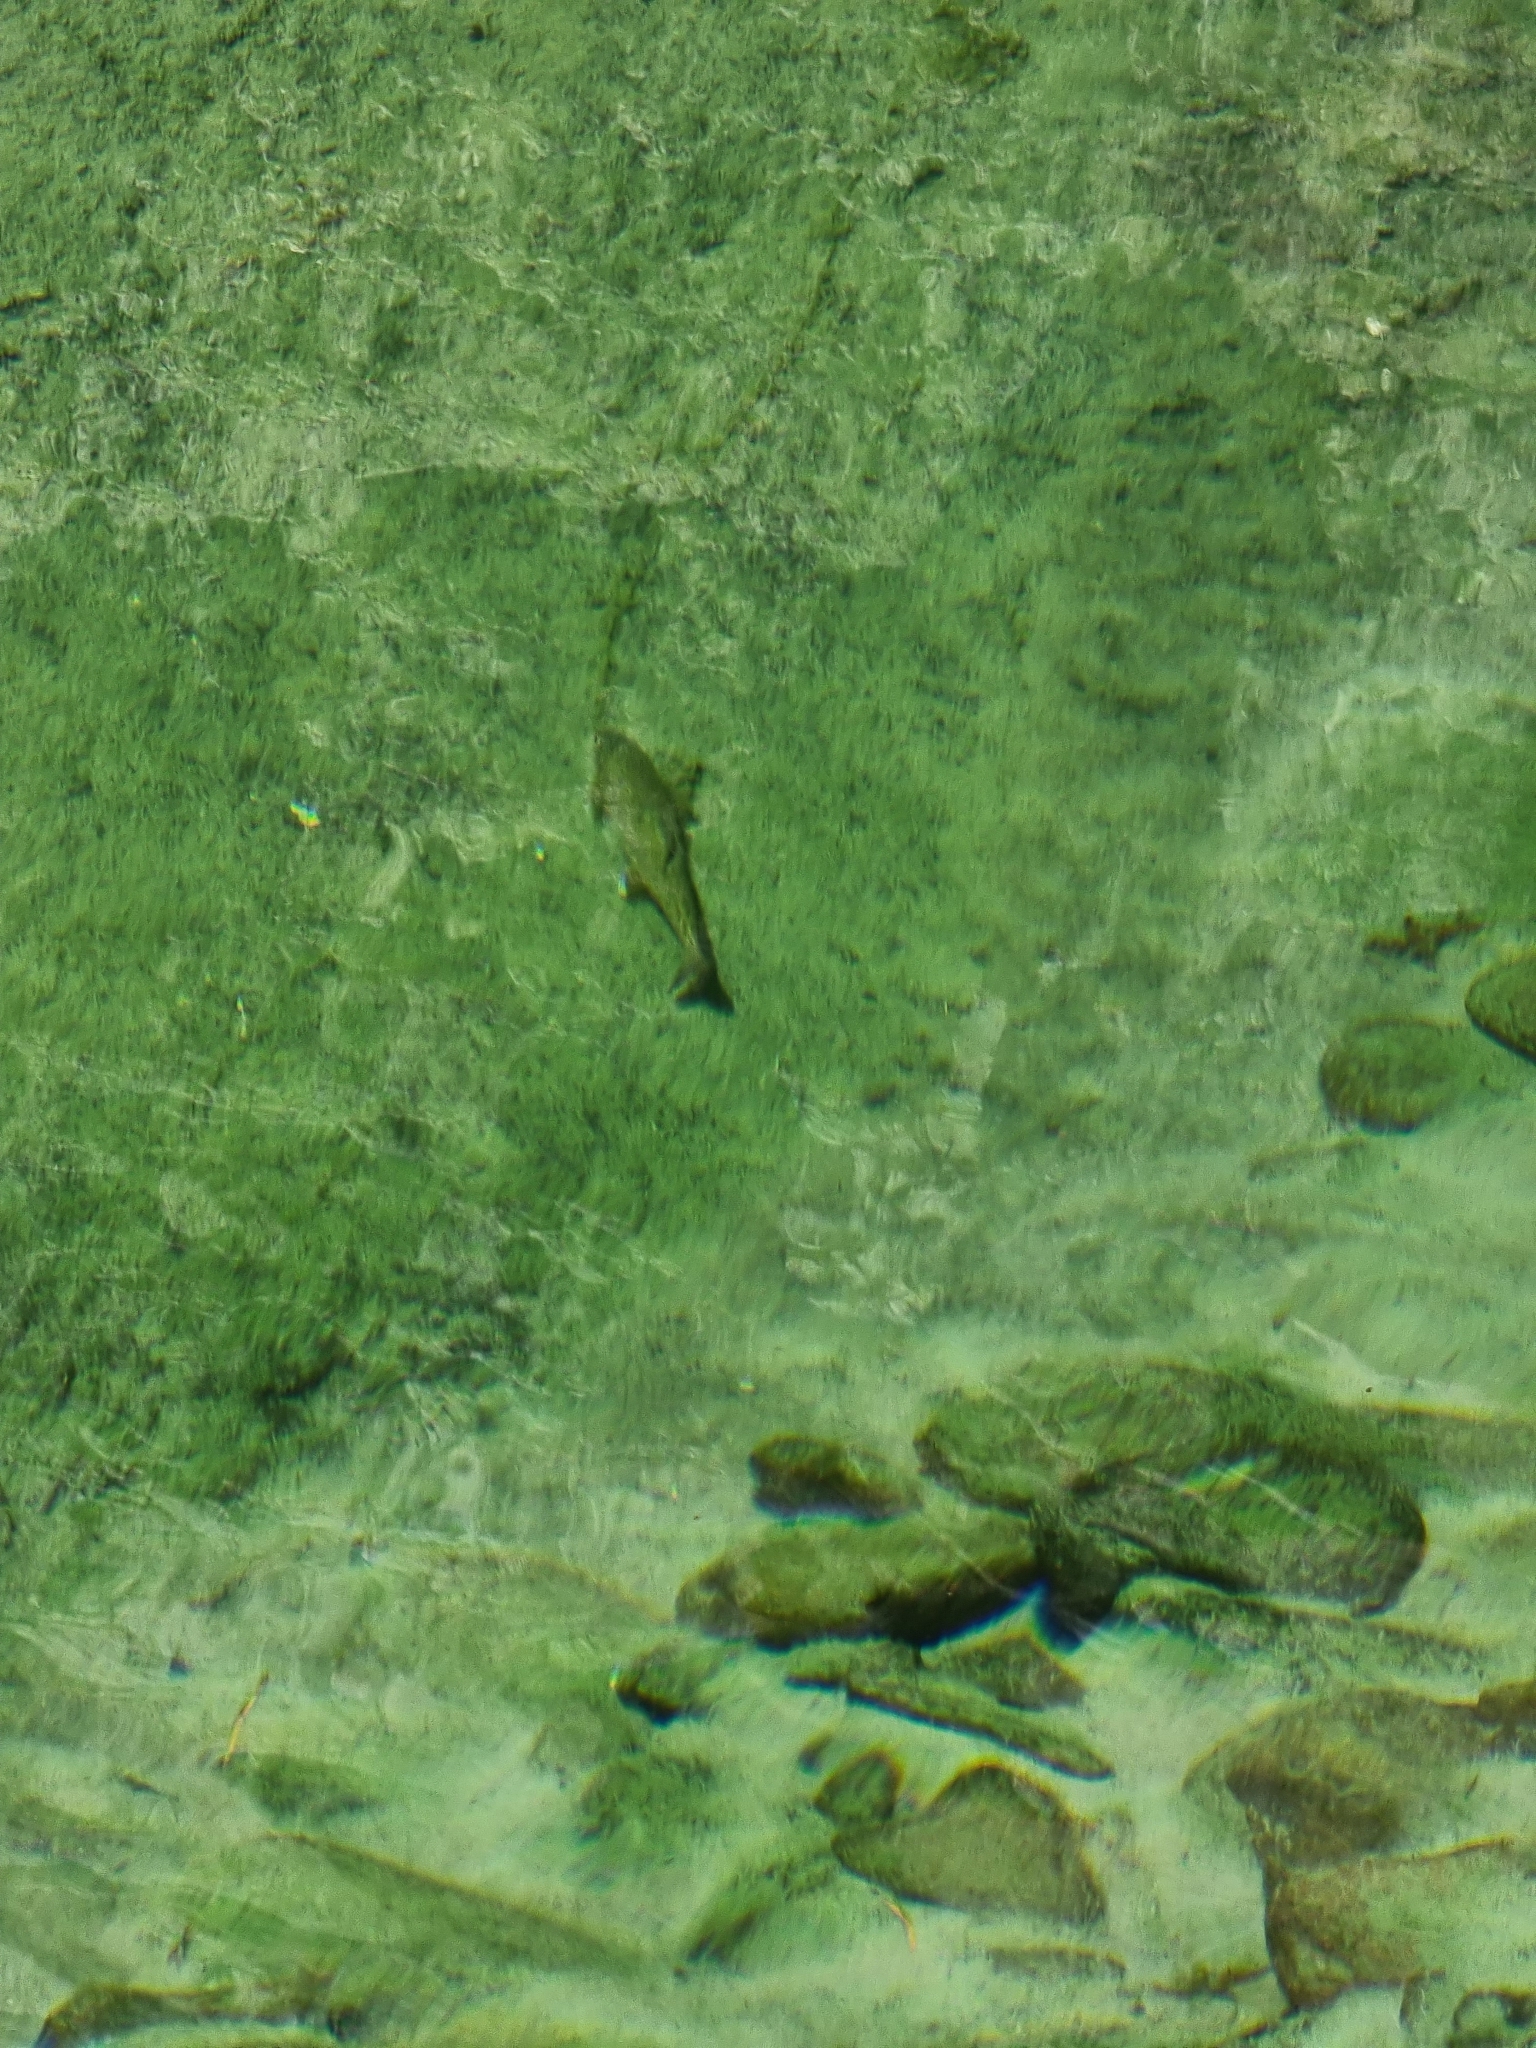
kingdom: Animalia
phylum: Chordata
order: Salmoniformes
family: Salmonidae
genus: Oncorhynchus
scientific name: Oncorhynchus mykiss
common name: Rainbow trout
